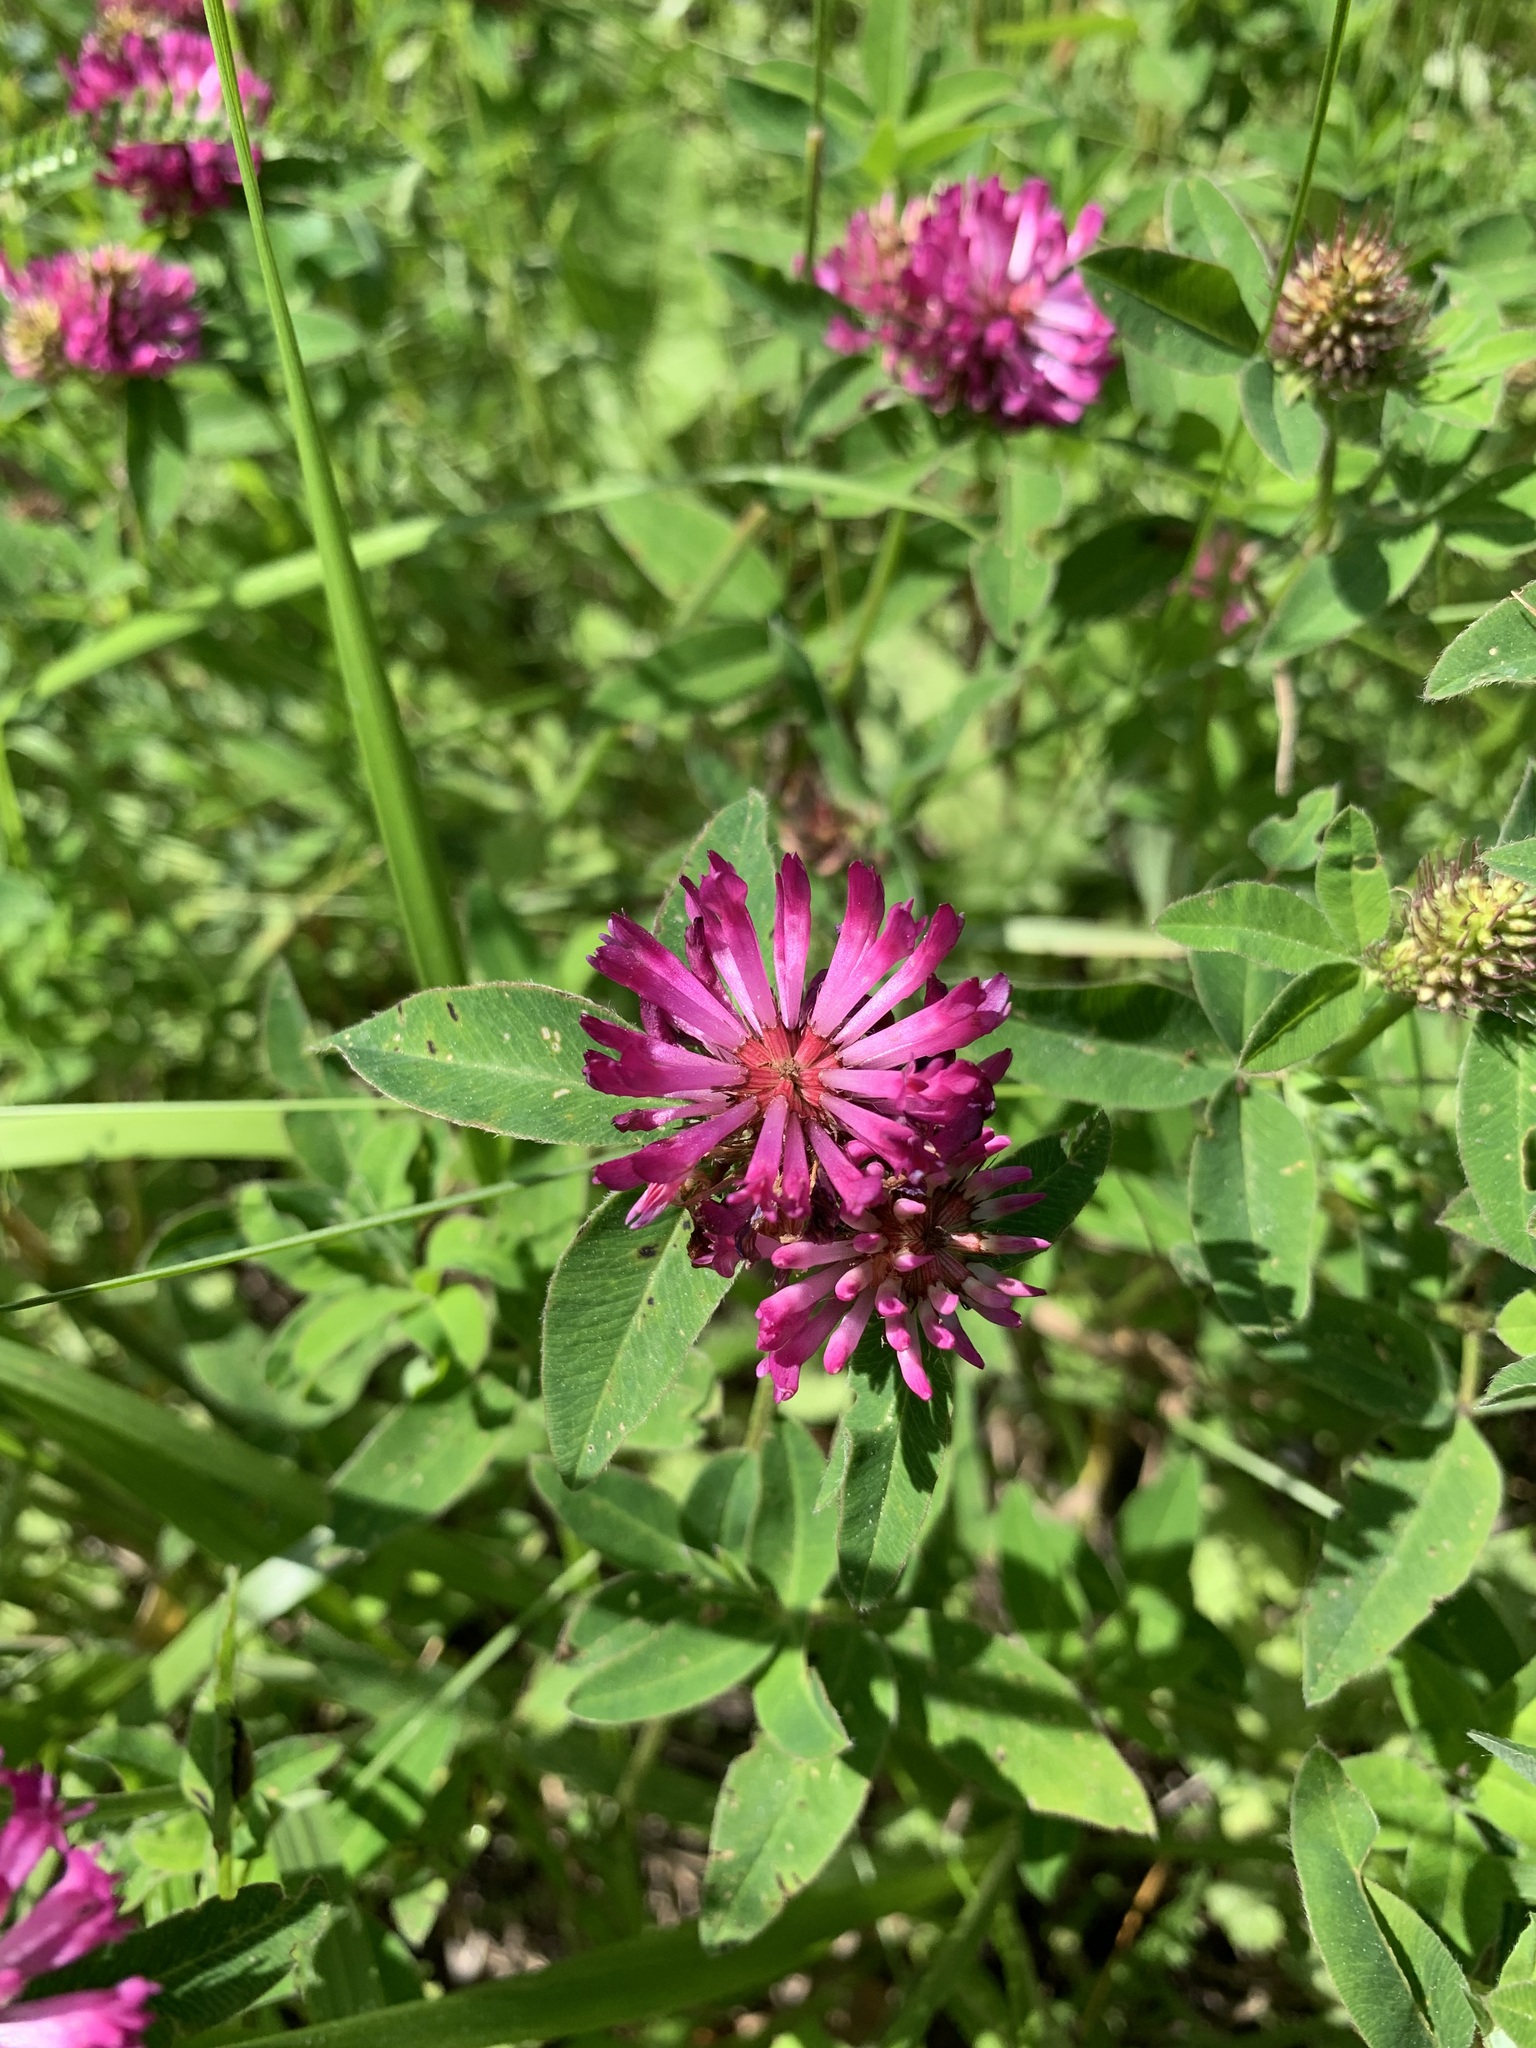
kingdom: Plantae
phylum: Tracheophyta
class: Magnoliopsida
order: Fabales
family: Fabaceae
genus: Trifolium
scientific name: Trifolium medium
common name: Zigzag clover
